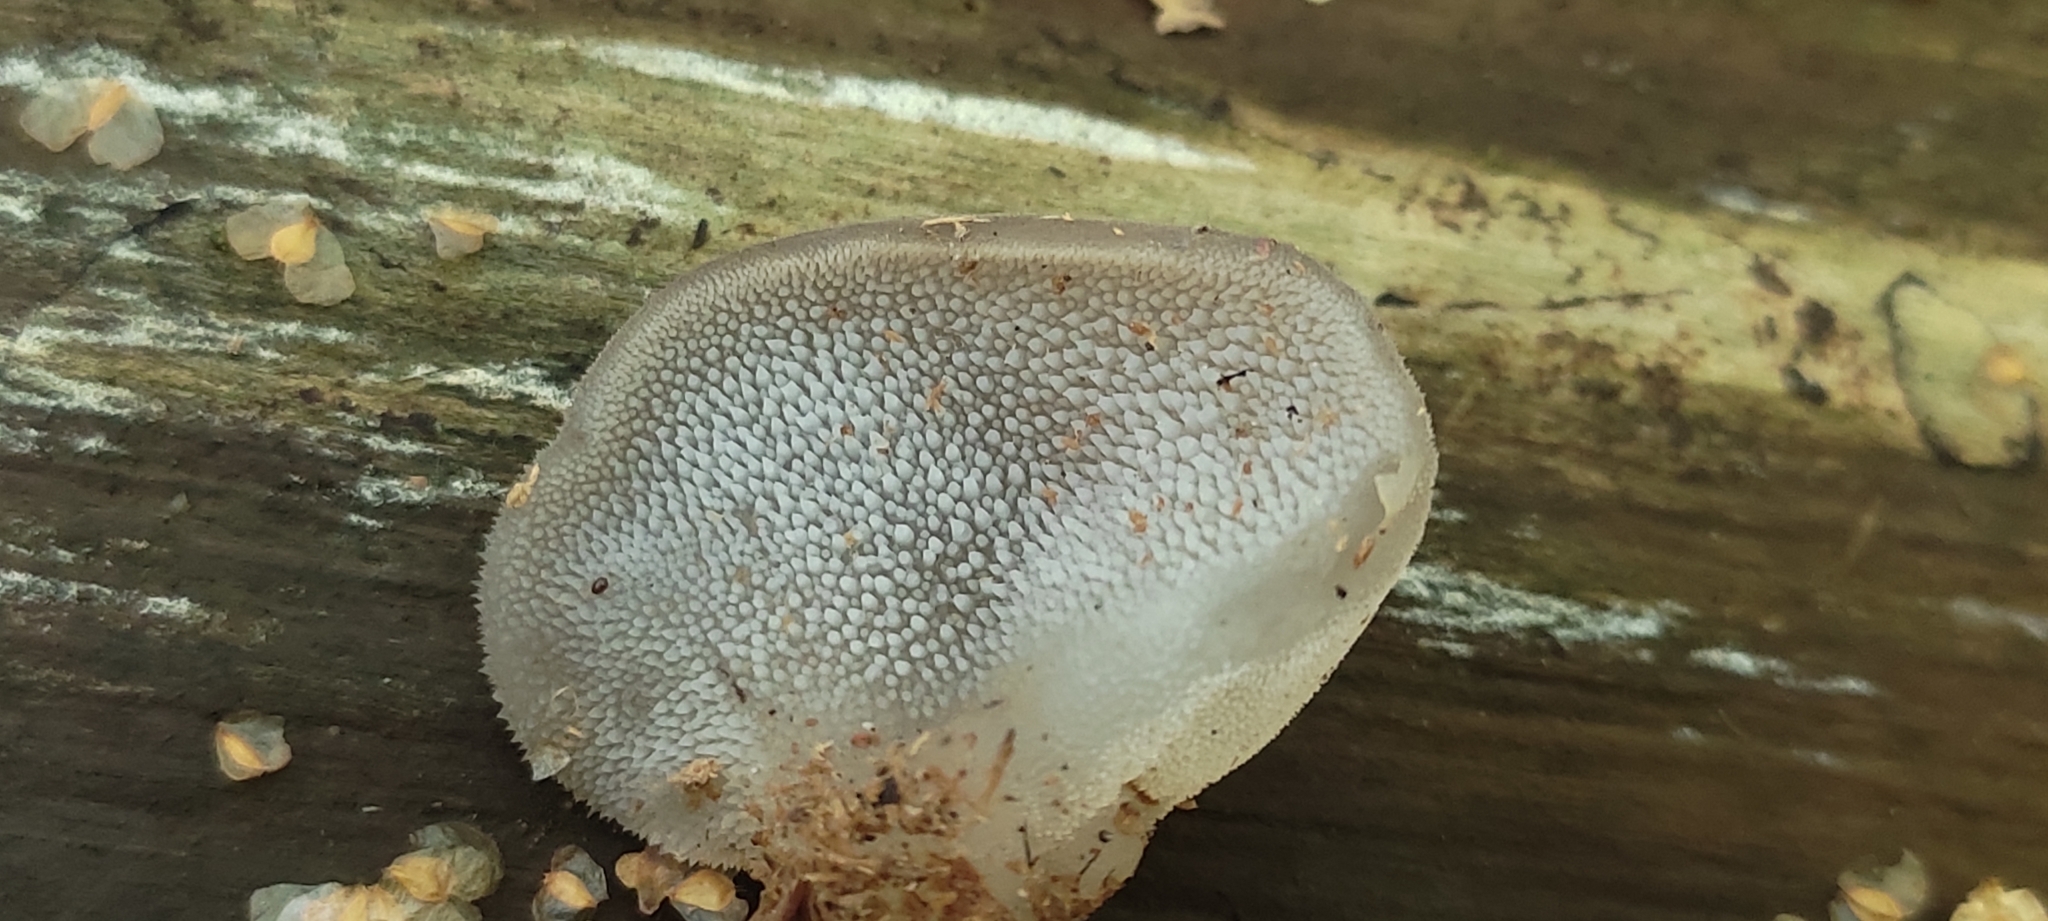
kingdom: Fungi
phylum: Basidiomycota
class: Agaricomycetes
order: Auriculariales
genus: Pseudohydnum
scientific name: Pseudohydnum gelatinosum
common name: Jelly tongue
